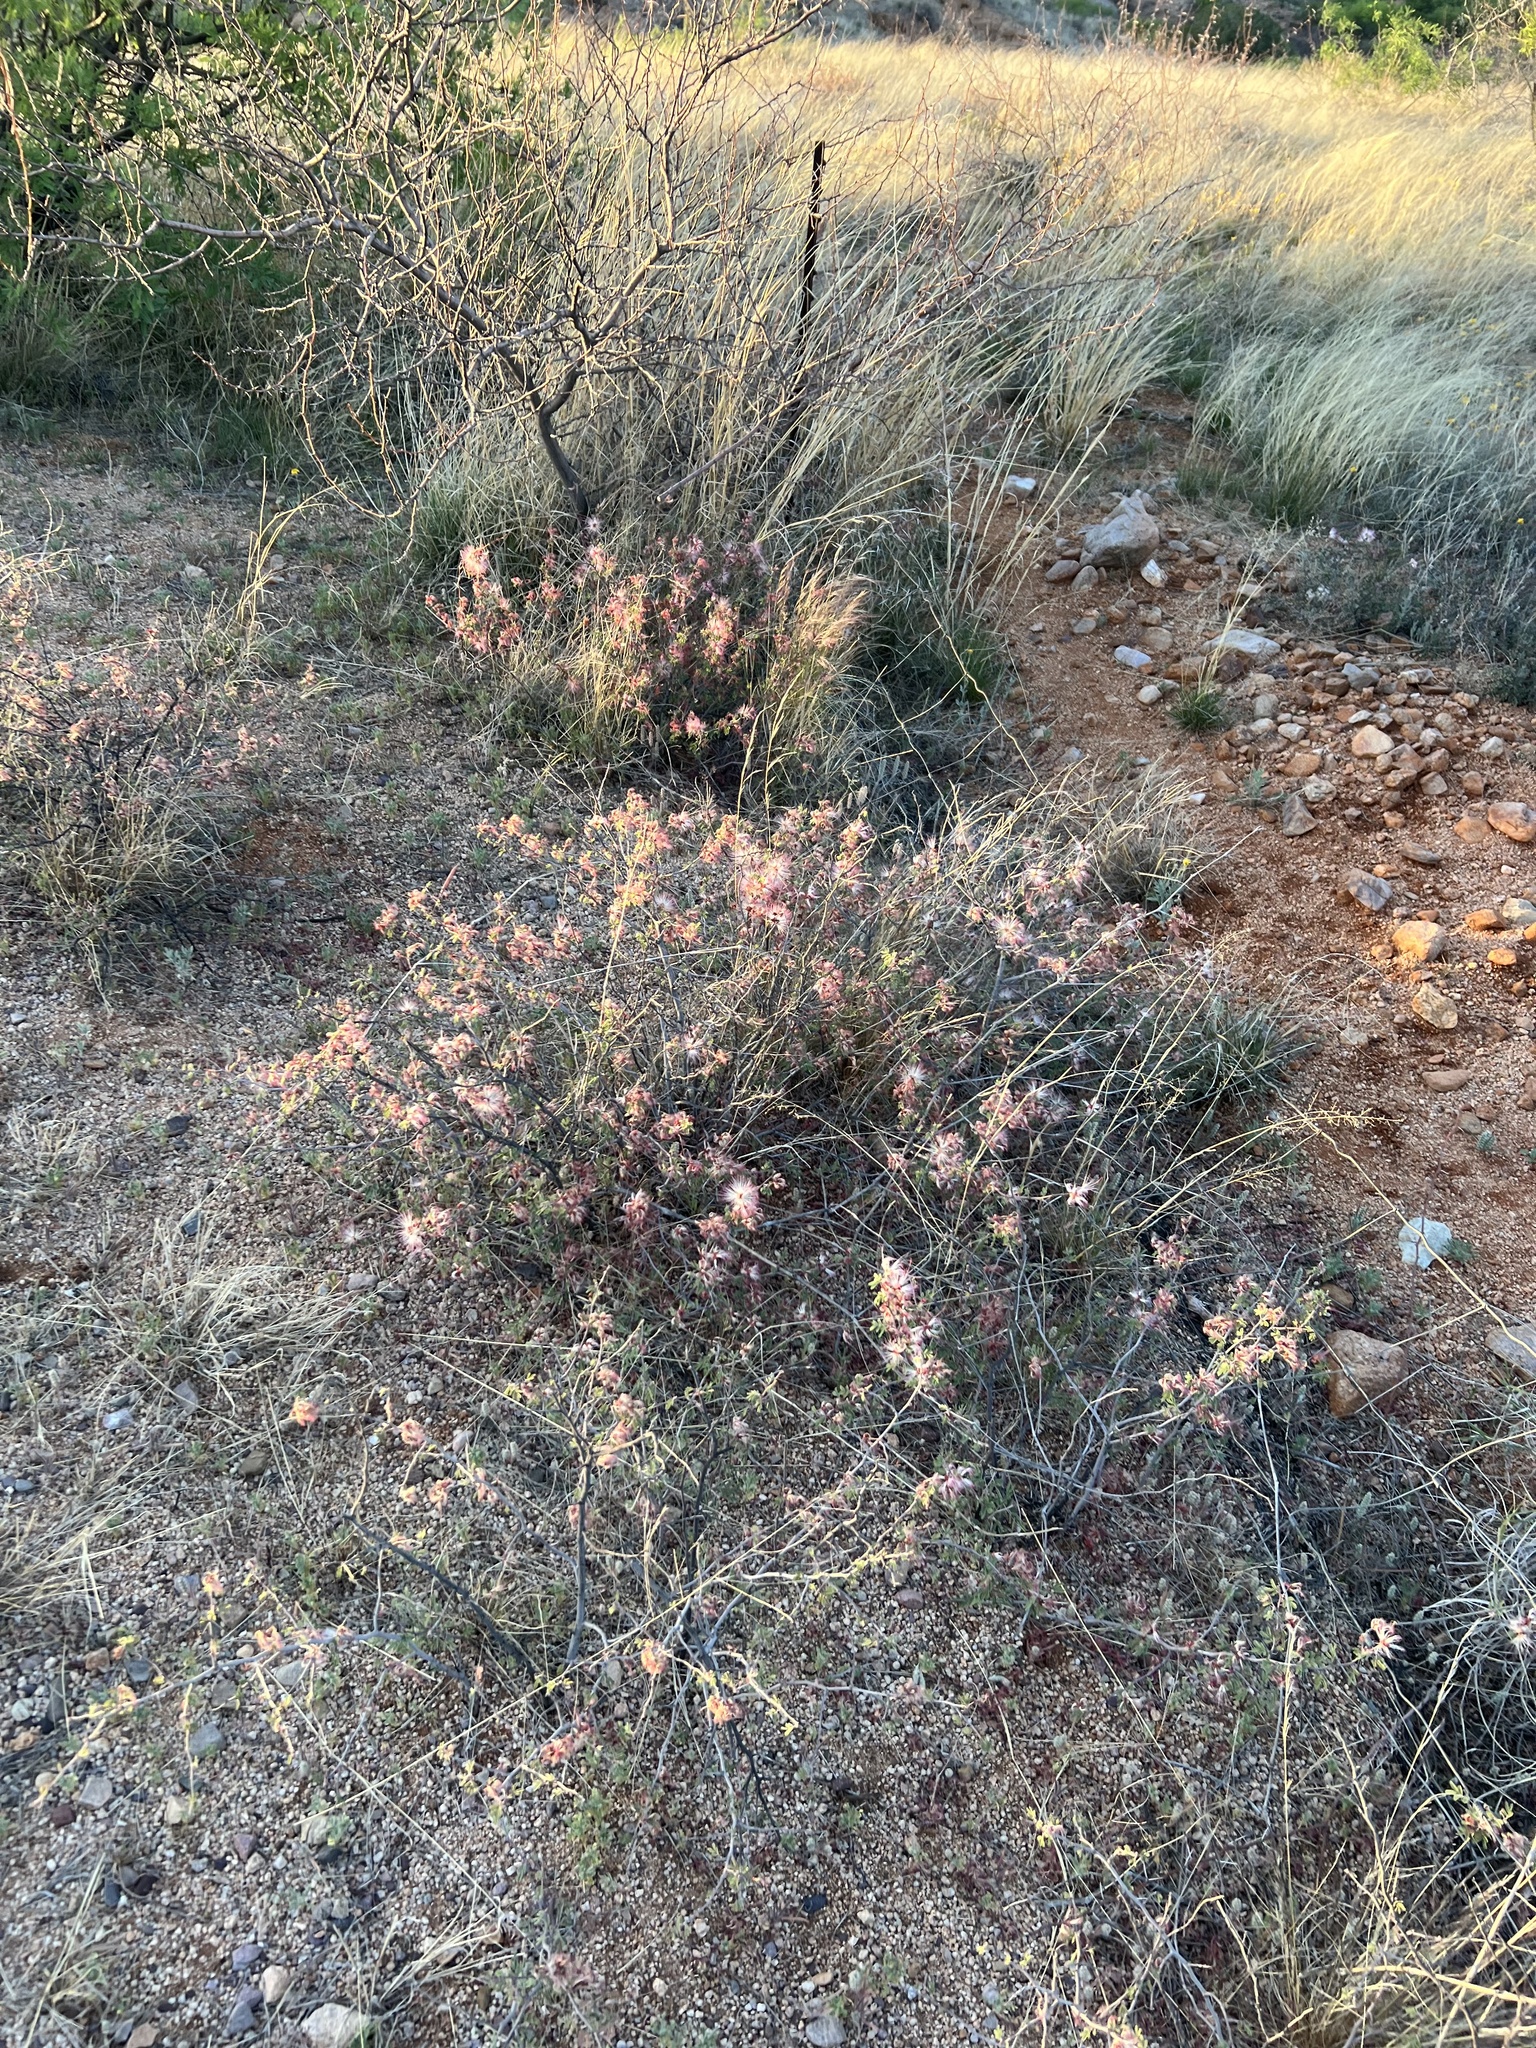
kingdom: Plantae
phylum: Tracheophyta
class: Magnoliopsida
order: Fabales
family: Fabaceae
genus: Calliandra
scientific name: Calliandra eriophylla
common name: Fairy-duster
